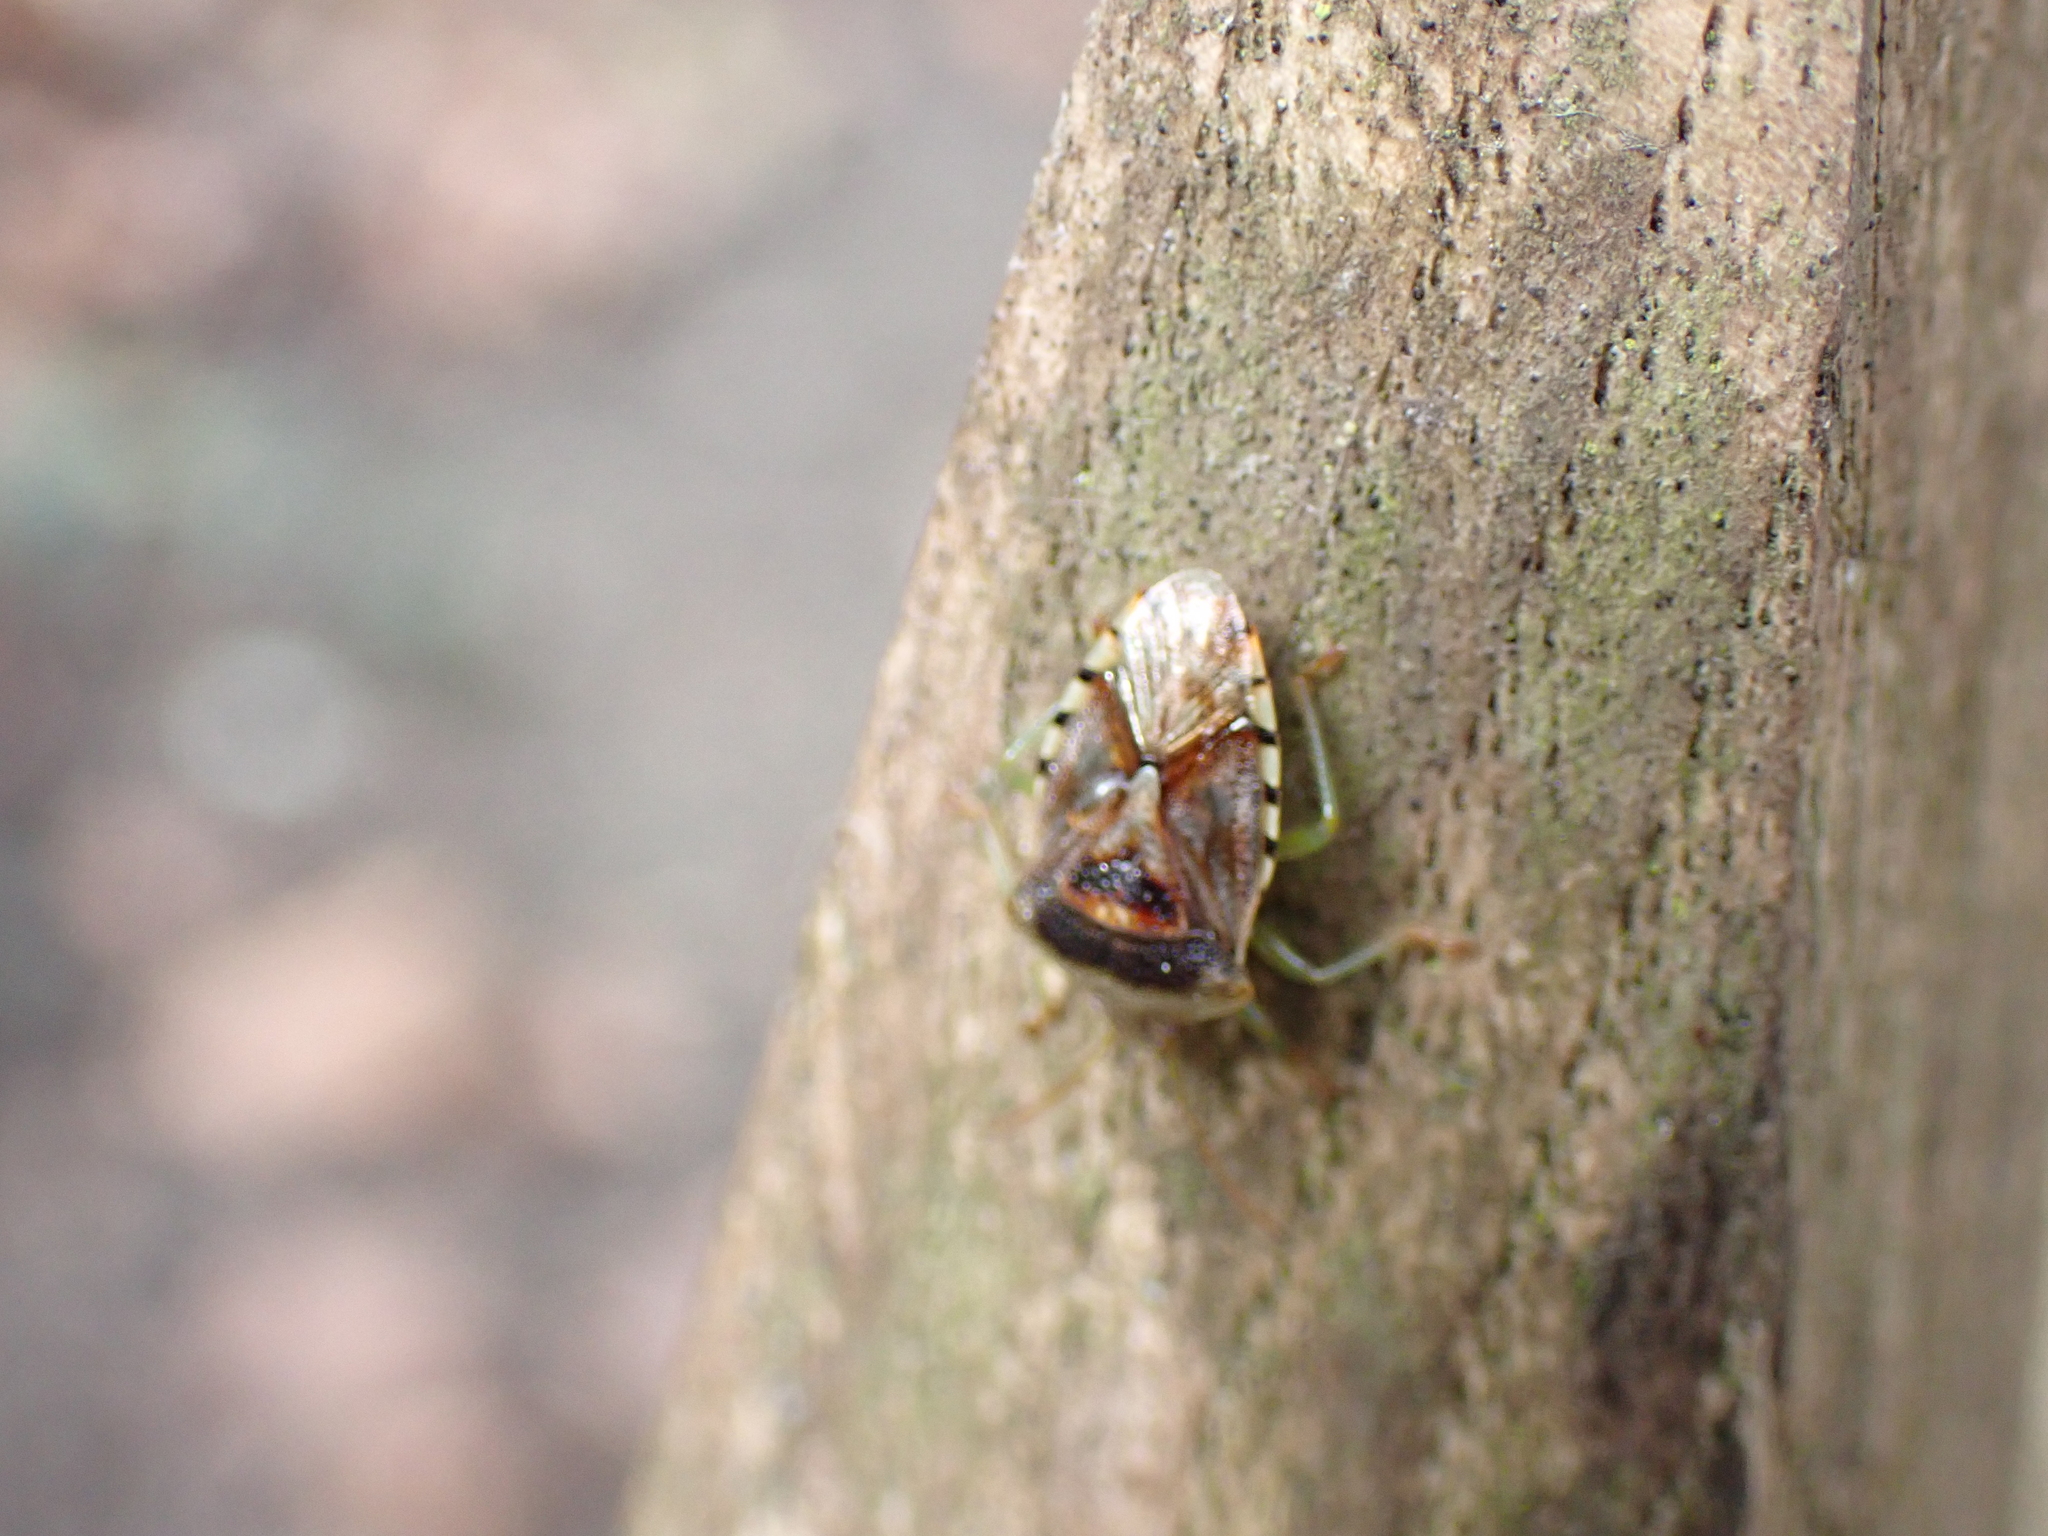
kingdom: Animalia
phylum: Arthropoda
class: Insecta
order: Hemiptera
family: Acanthosomatidae
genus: Elasmucha
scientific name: Elasmucha grisea
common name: Parent bug
